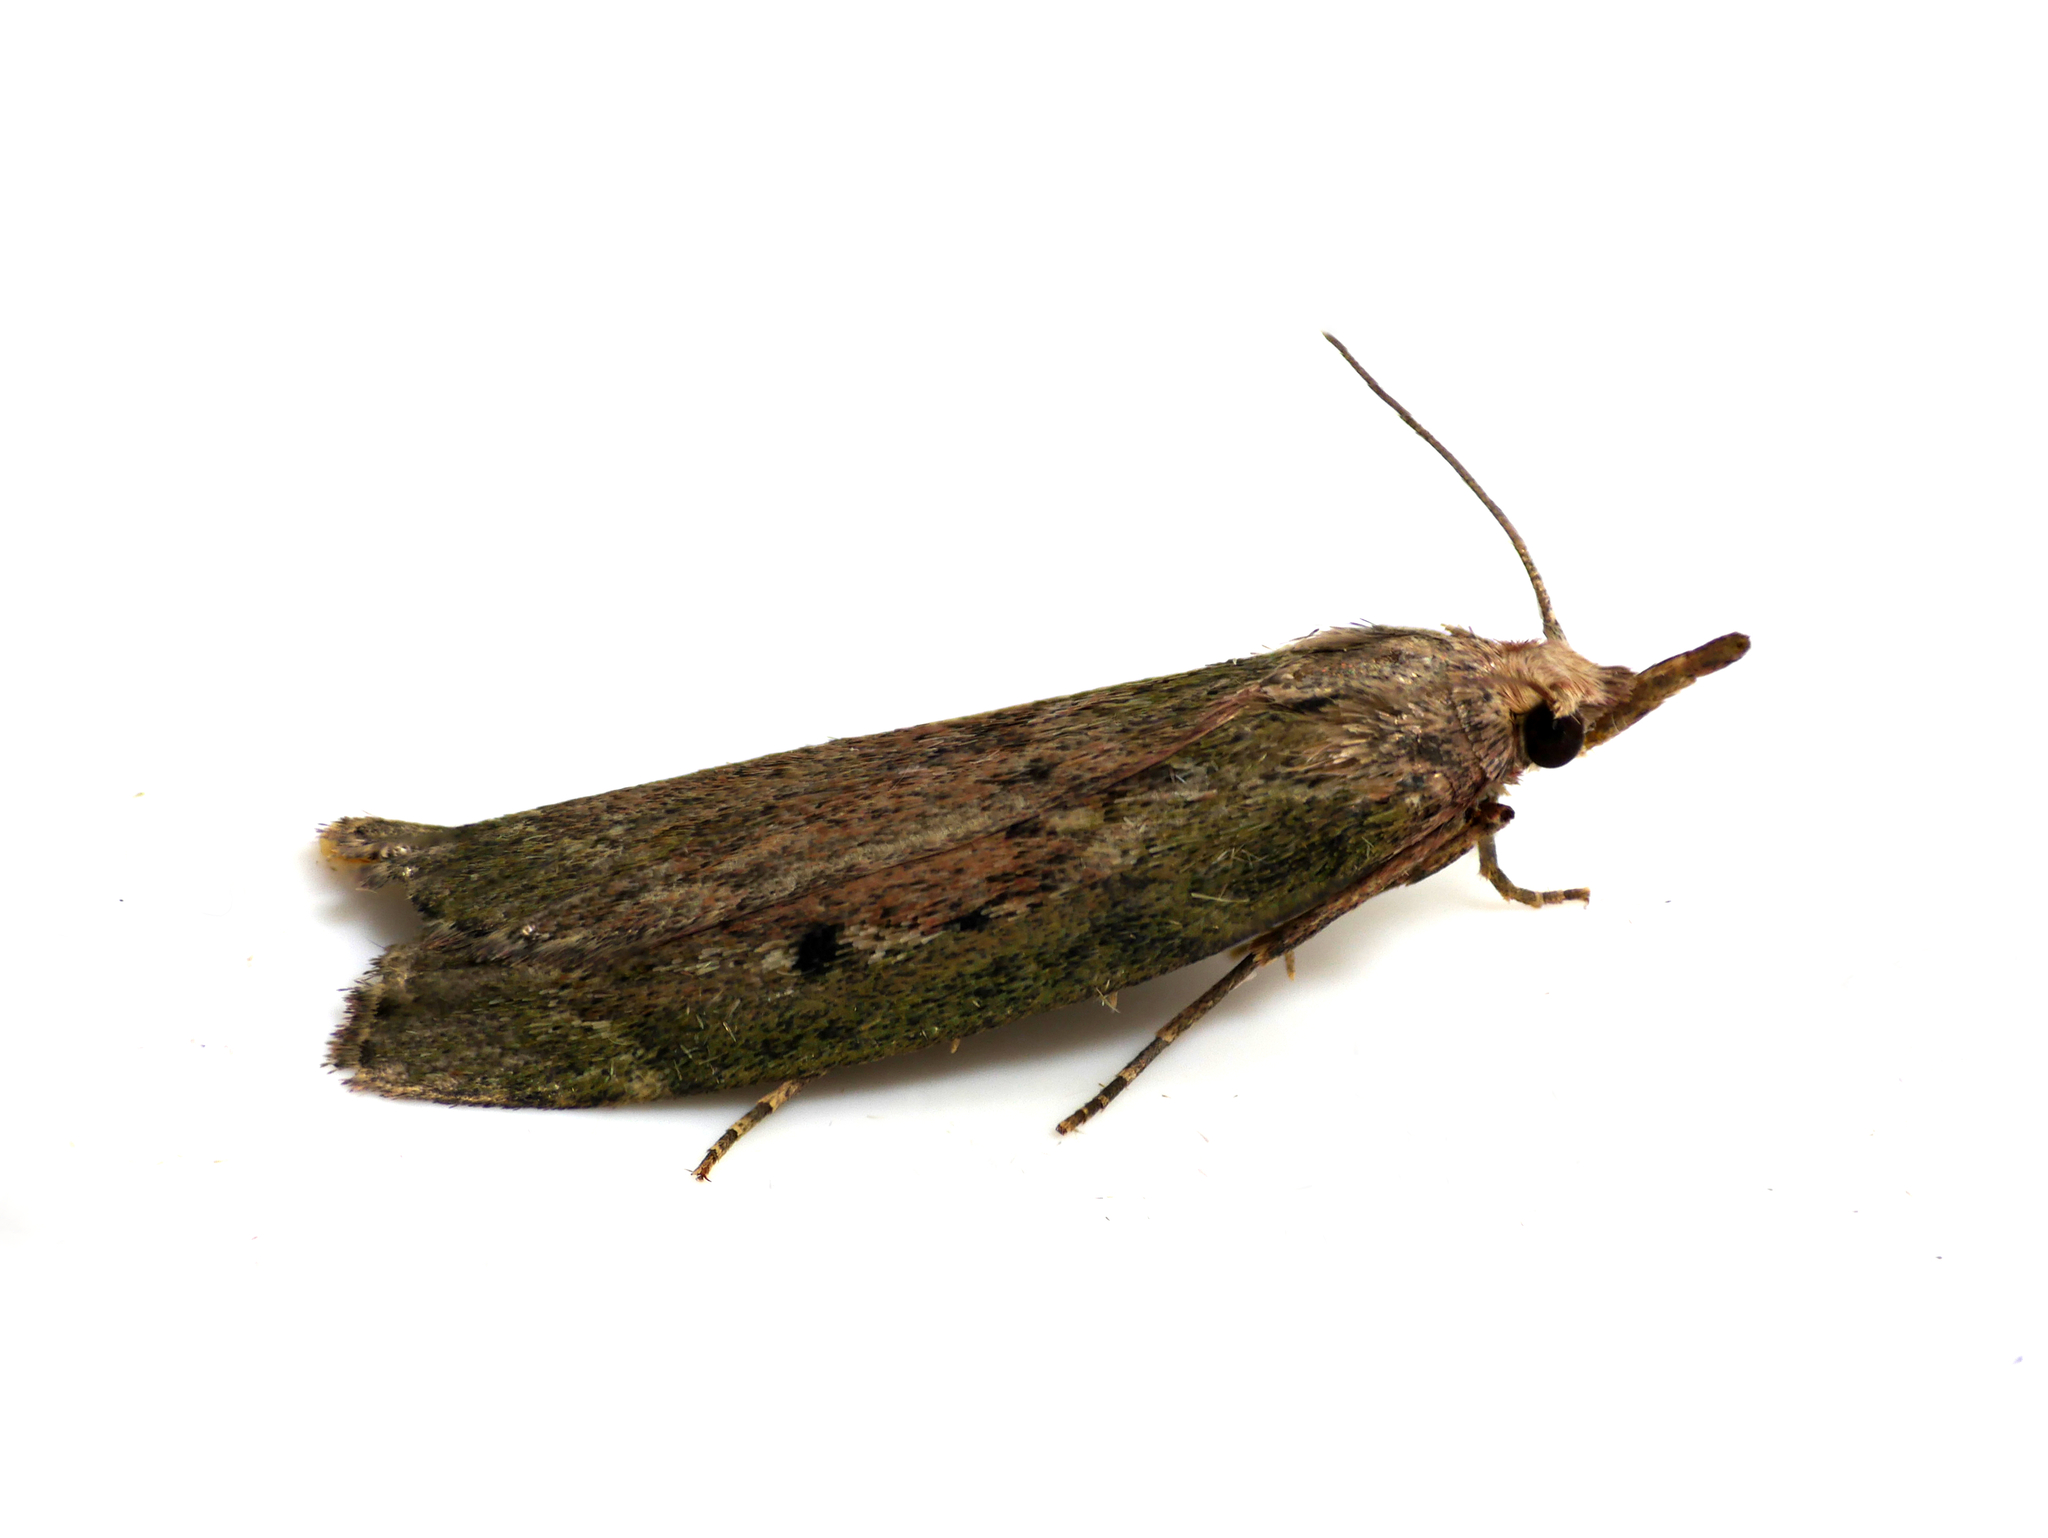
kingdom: Animalia
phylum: Arthropoda
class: Insecta
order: Lepidoptera
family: Pyralidae
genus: Aphomia
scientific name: Aphomia sociella
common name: Bee moth
